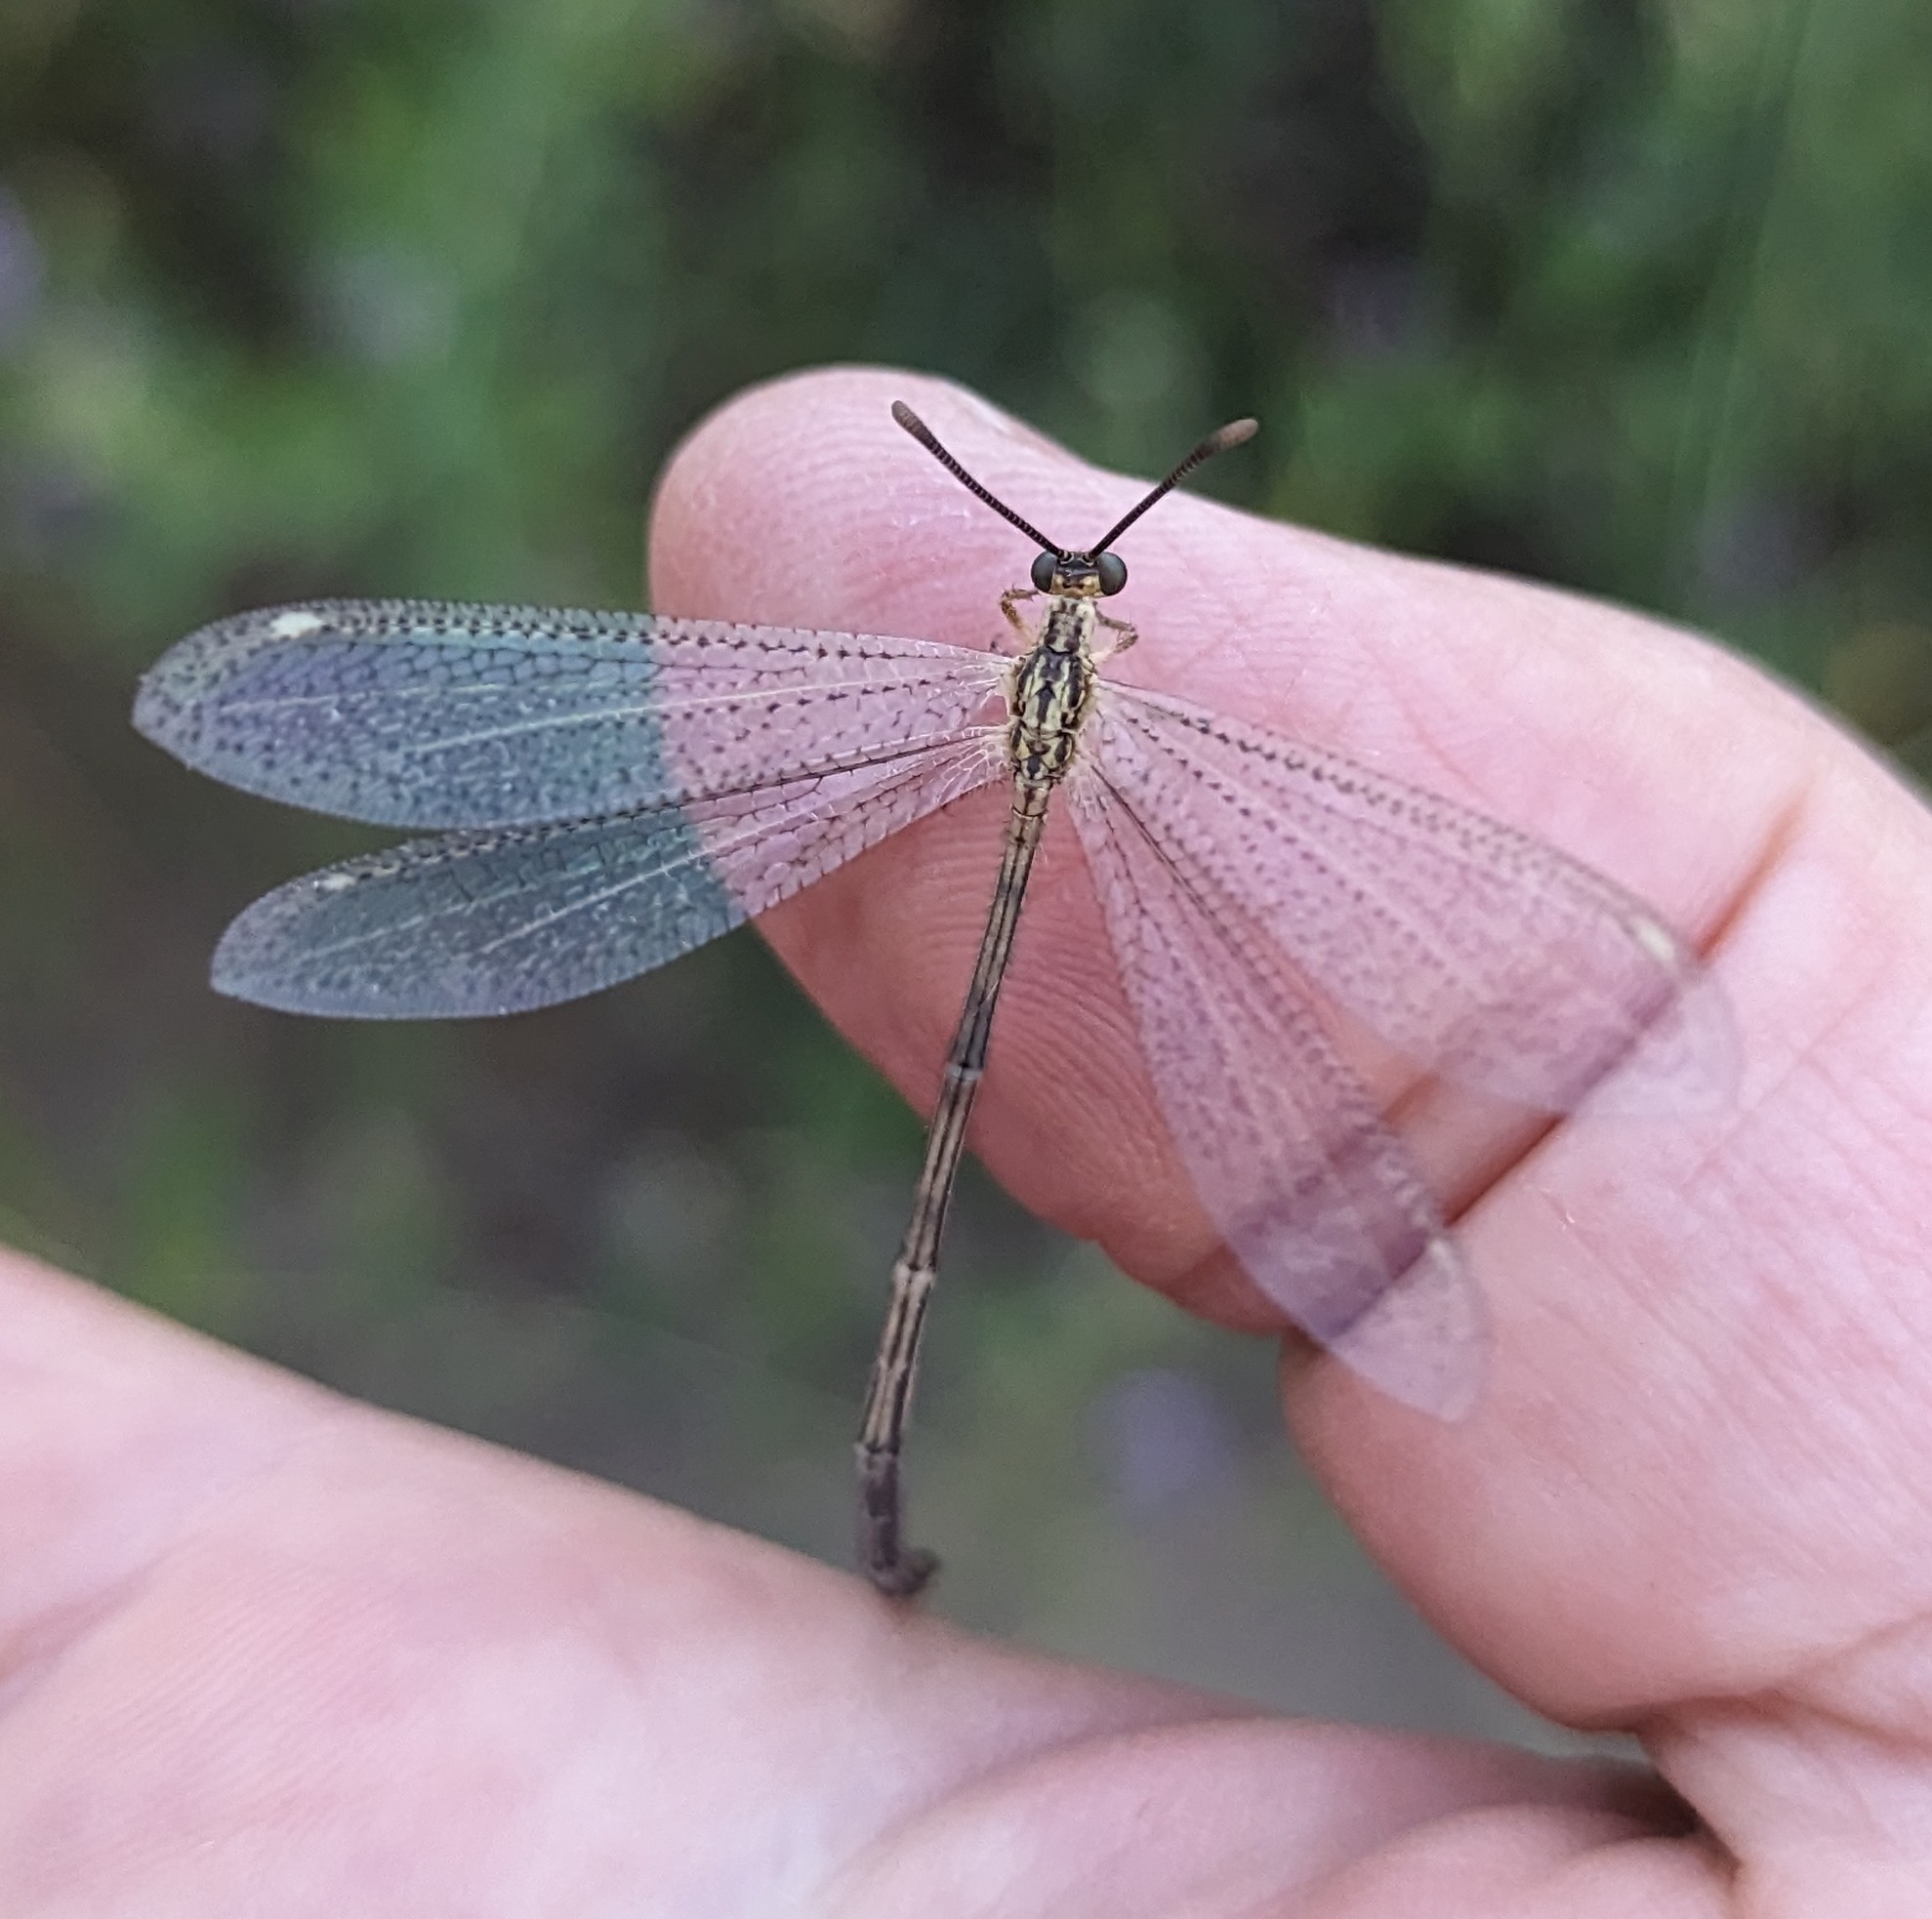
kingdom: Animalia
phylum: Arthropoda
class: Insecta
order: Neuroptera
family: Myrmeleontidae
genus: Brachynemurus
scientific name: Brachynemurus abdominalis
